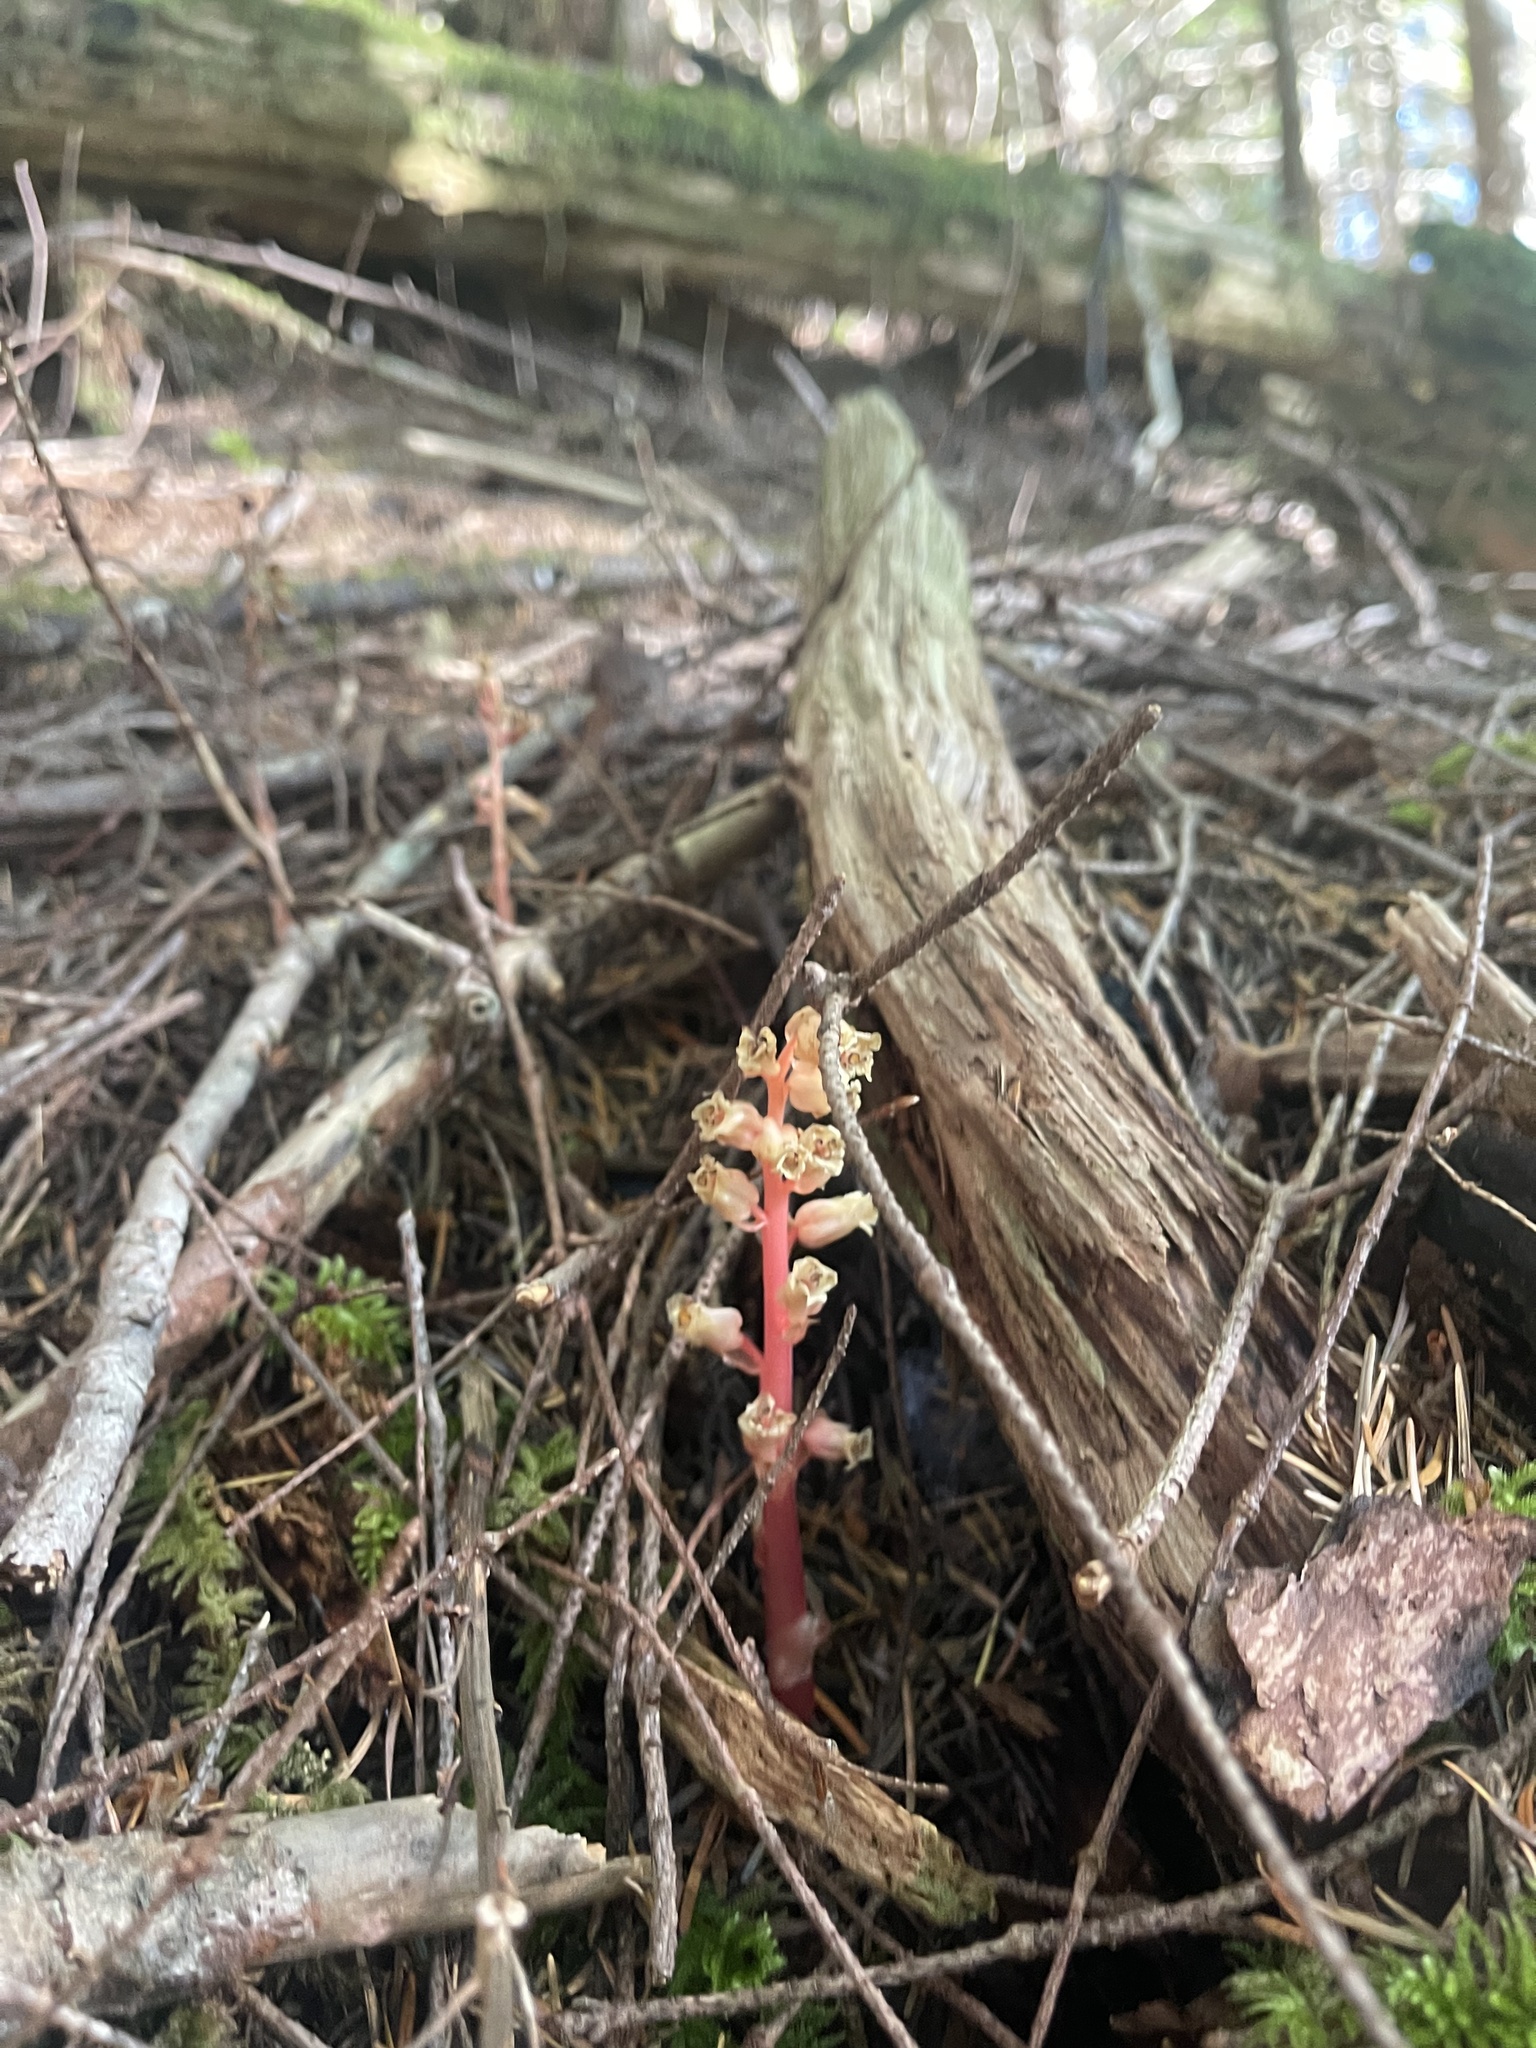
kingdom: Plantae
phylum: Tracheophyta
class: Magnoliopsida
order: Ericales
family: Ericaceae
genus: Hypopitys
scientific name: Hypopitys monotropa
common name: Yellow bird's-nest
